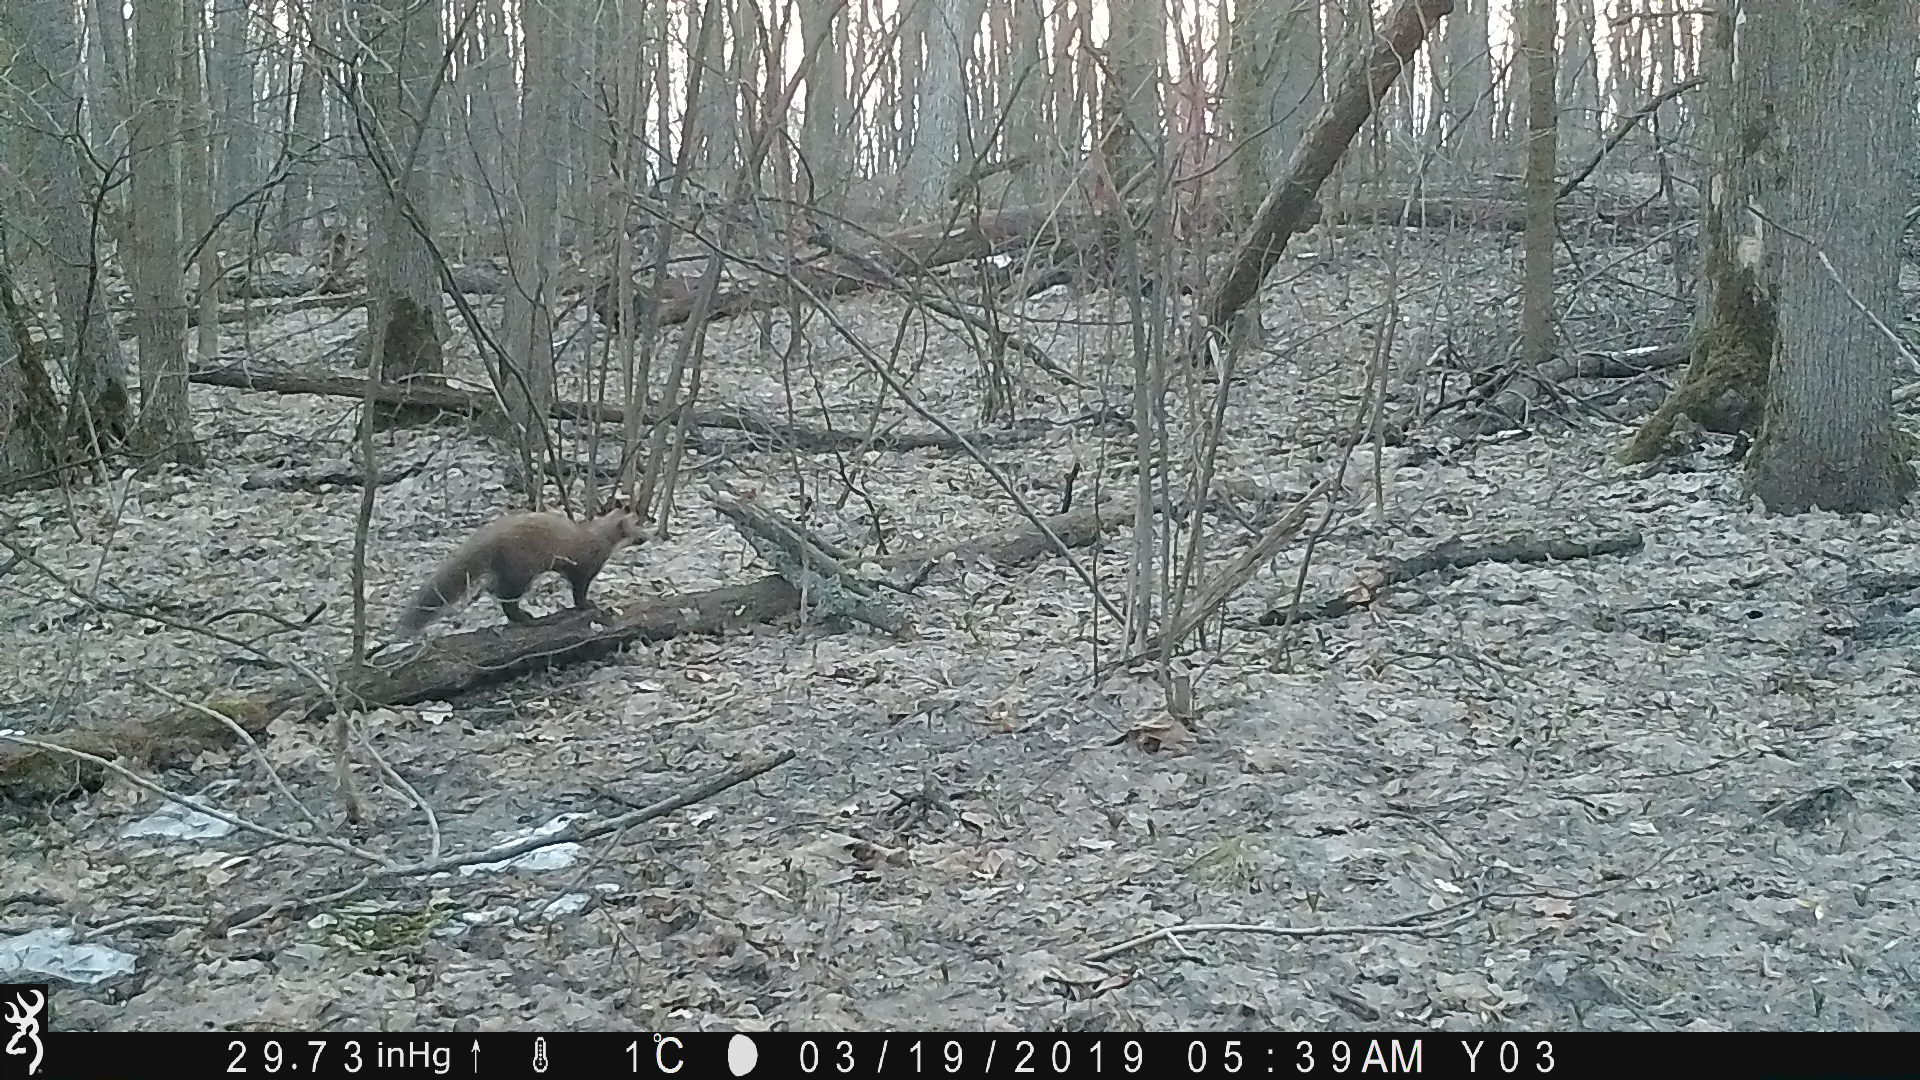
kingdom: Animalia
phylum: Chordata
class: Mammalia
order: Carnivora
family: Mustelidae
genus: Martes
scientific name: Martes martes
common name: European pine marten
